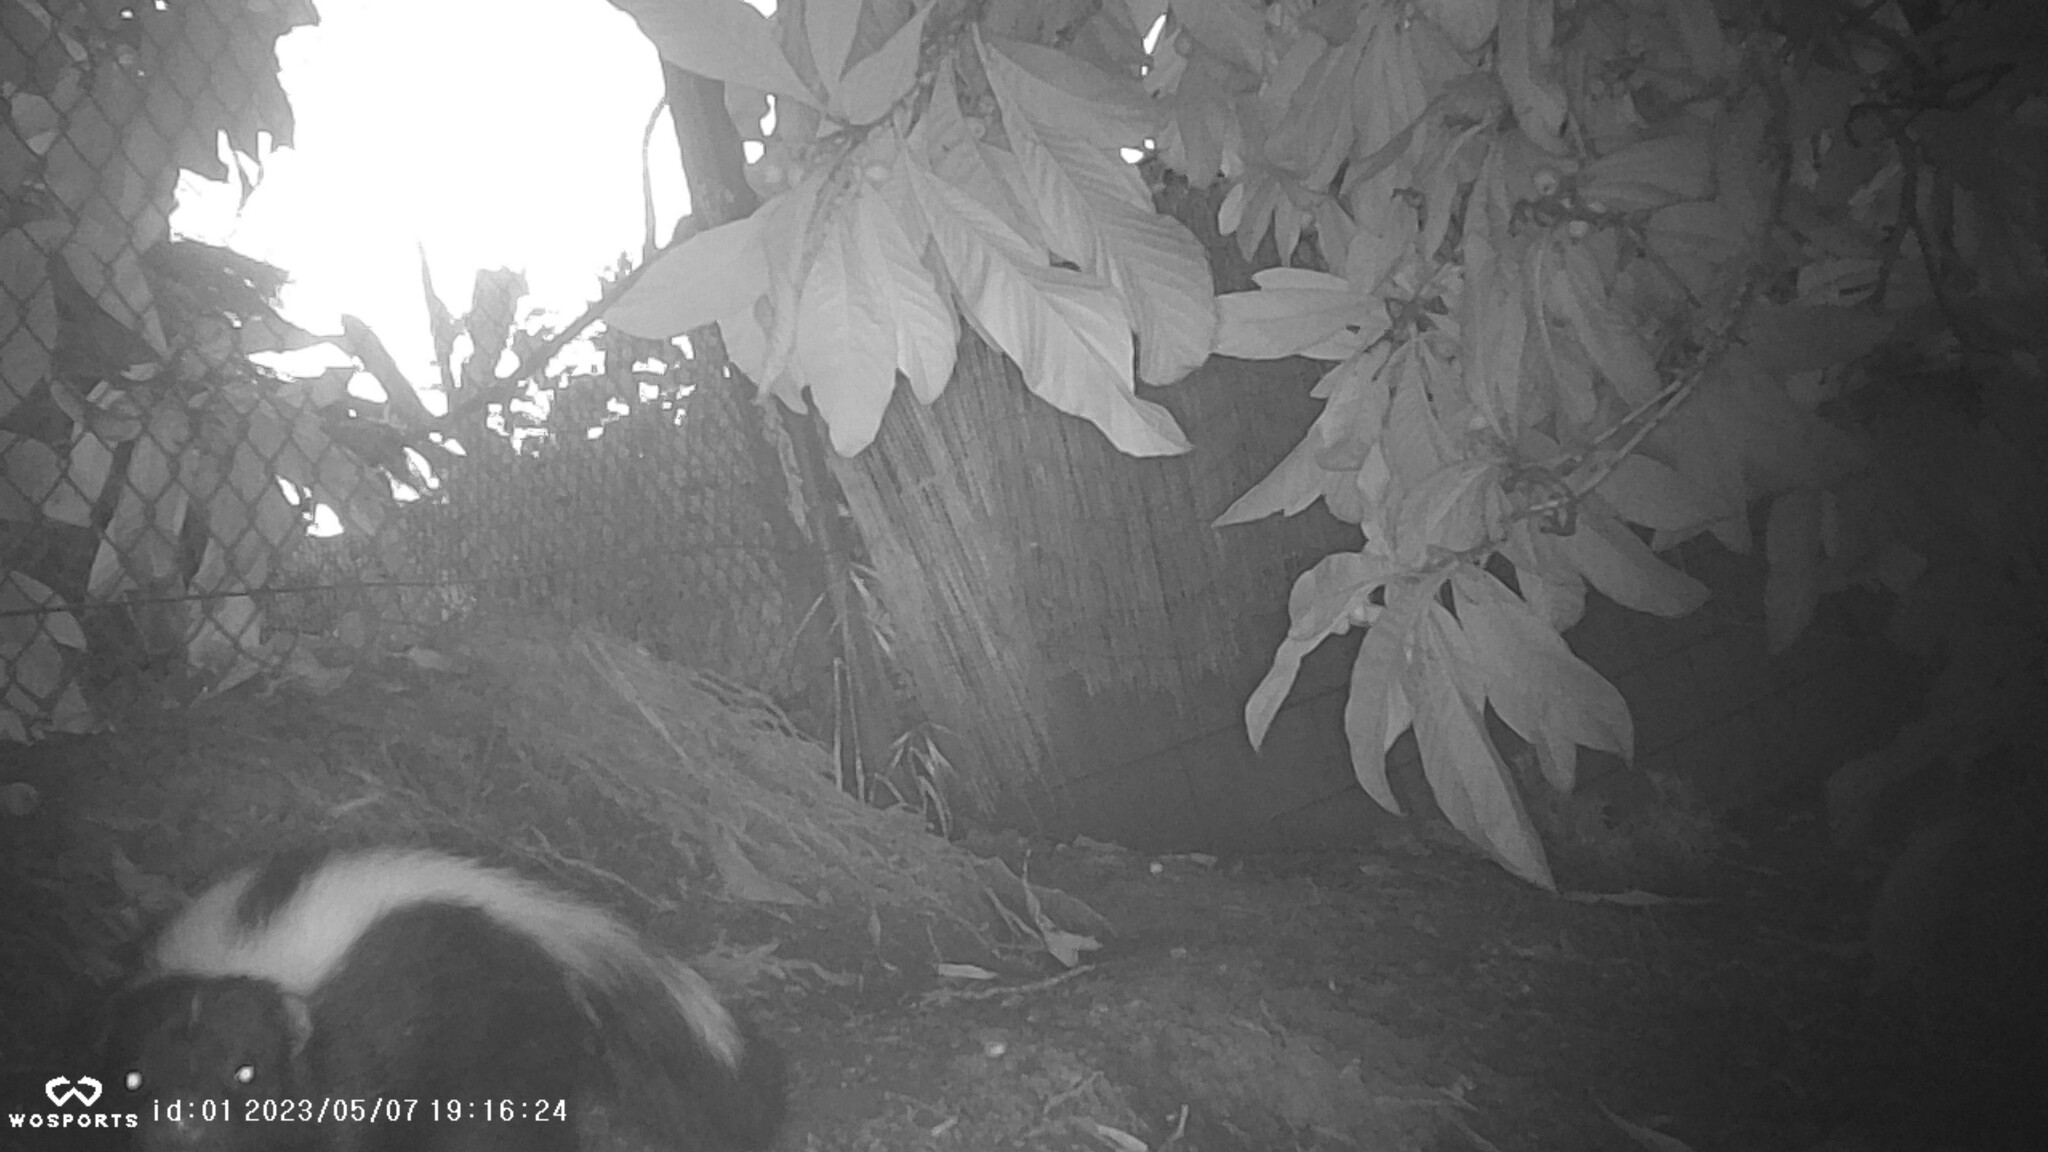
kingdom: Animalia
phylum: Chordata
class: Mammalia
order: Carnivora
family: Mephitidae
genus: Mephitis
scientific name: Mephitis mephitis
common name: Striped skunk
